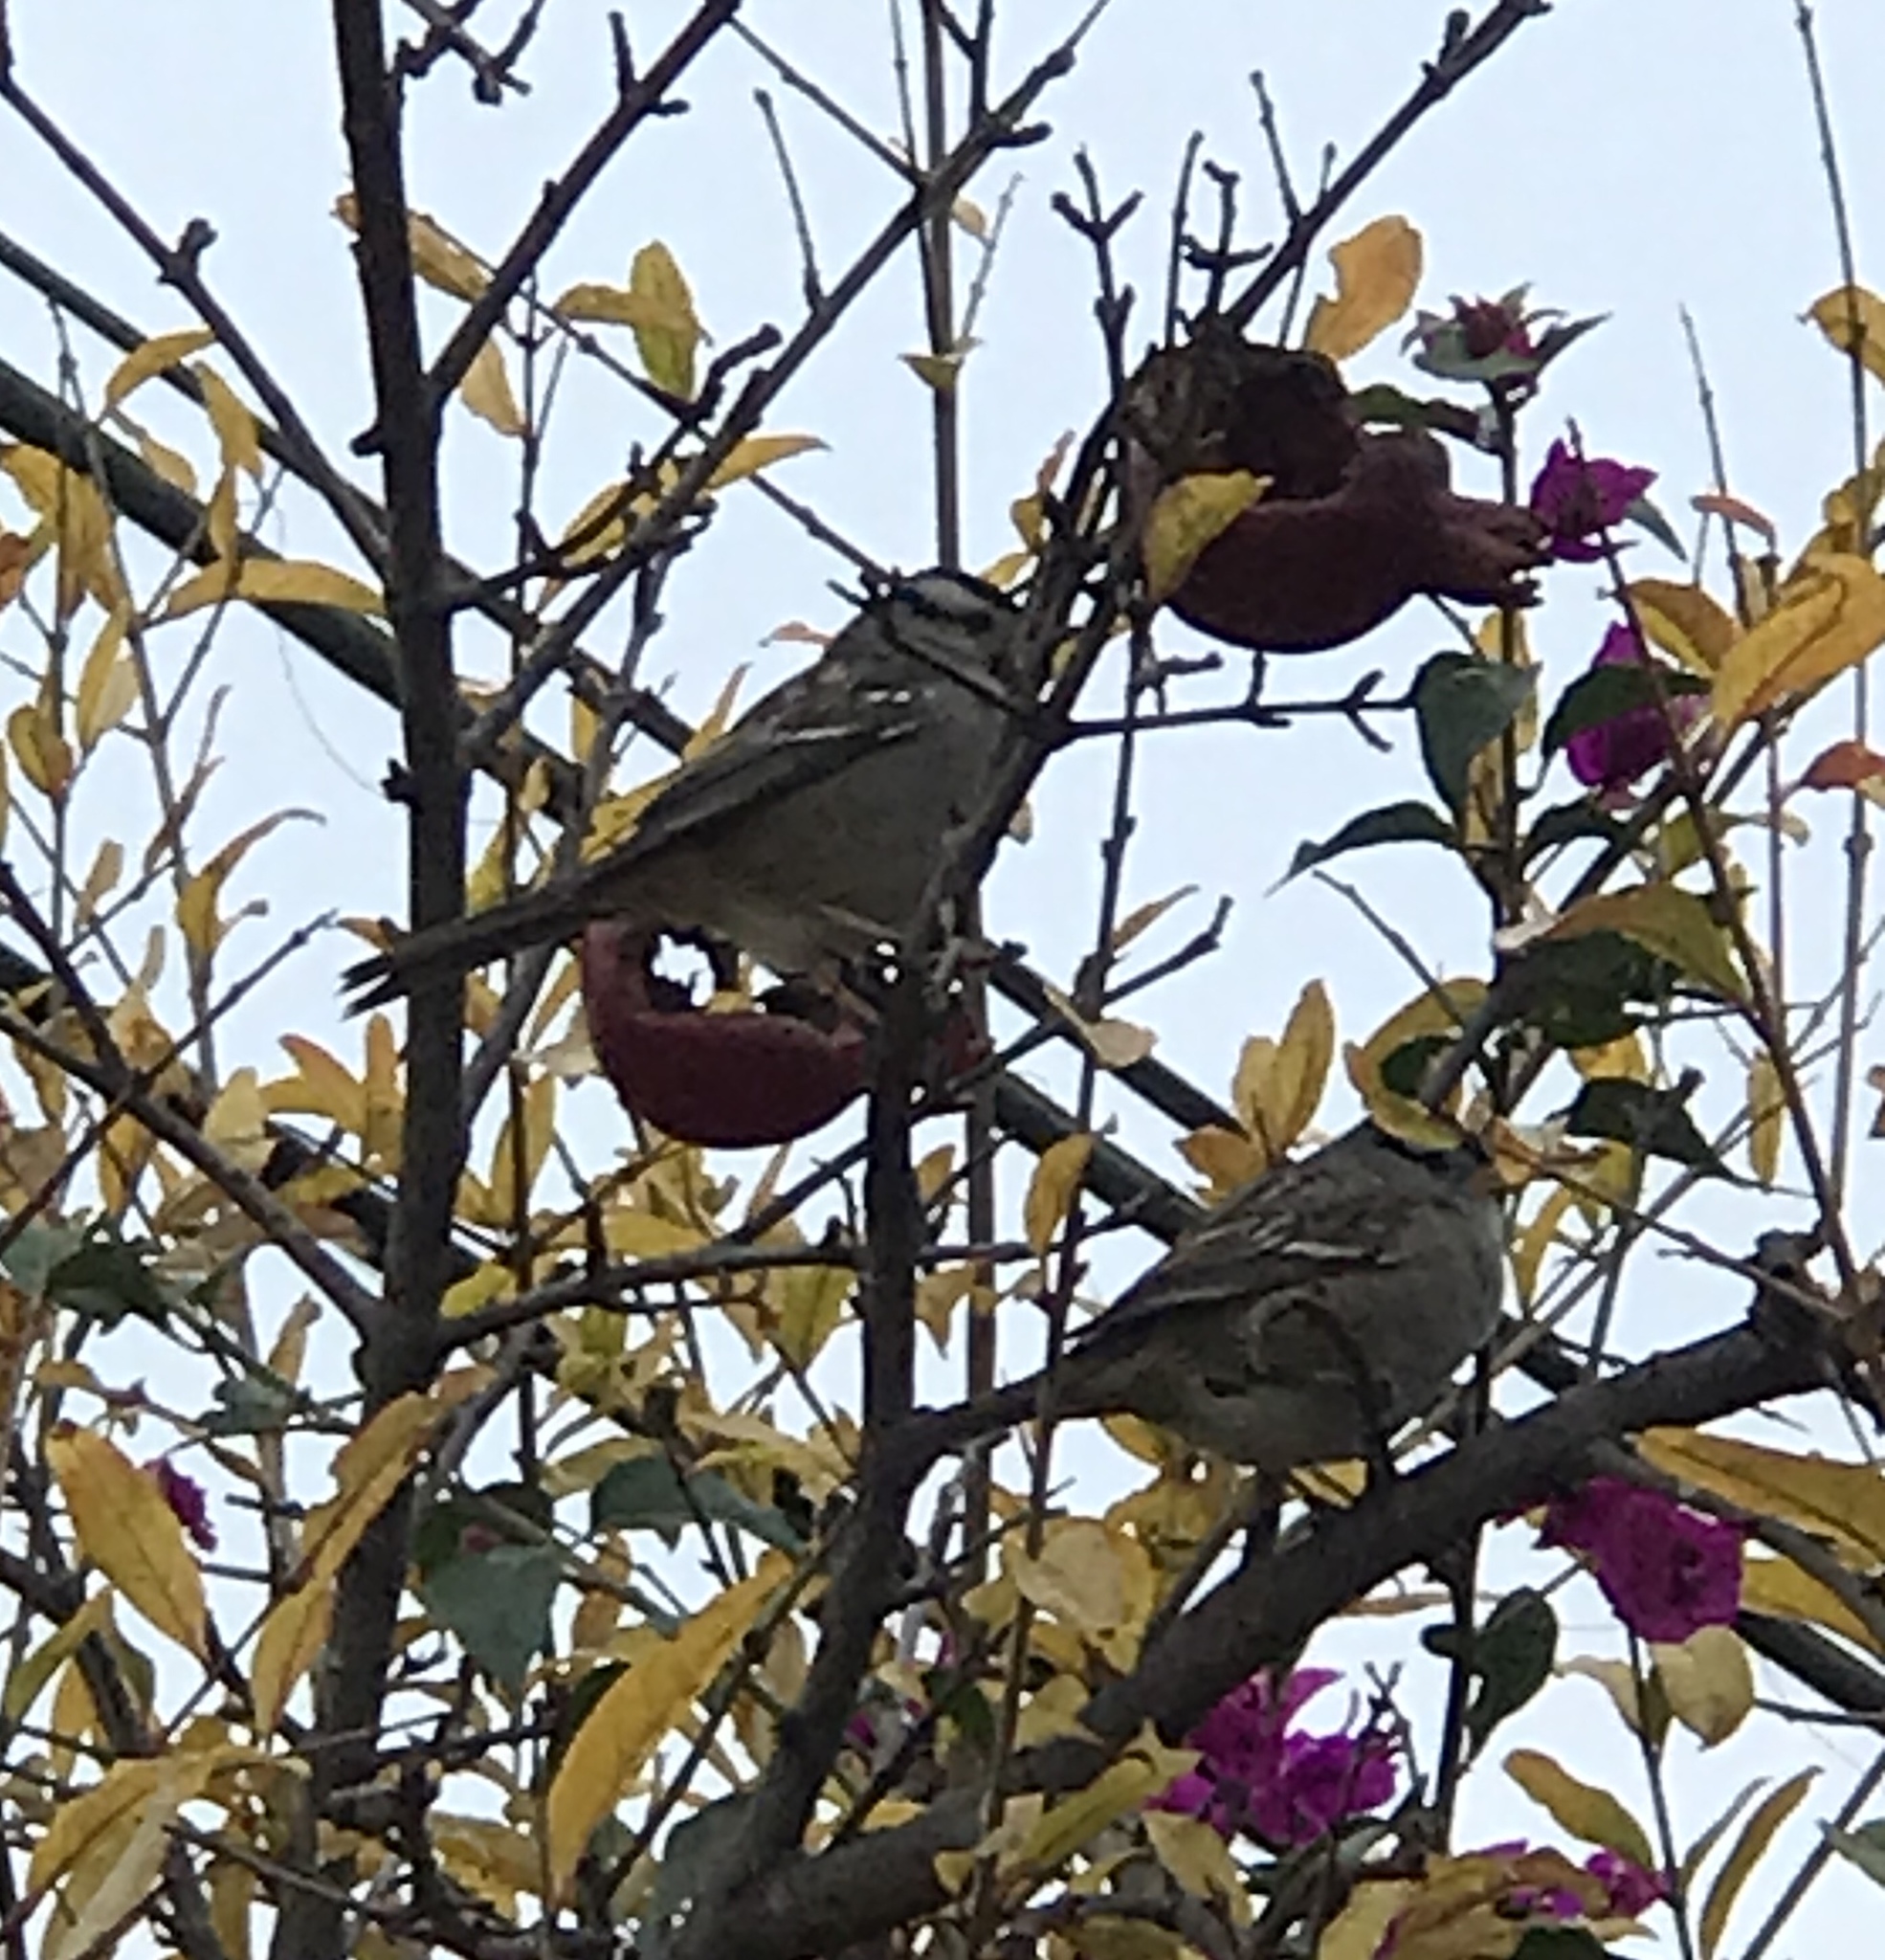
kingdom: Animalia
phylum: Chordata
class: Aves
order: Passeriformes
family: Passerellidae
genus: Zonotrichia
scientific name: Zonotrichia leucophrys
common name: White-crowned sparrow
